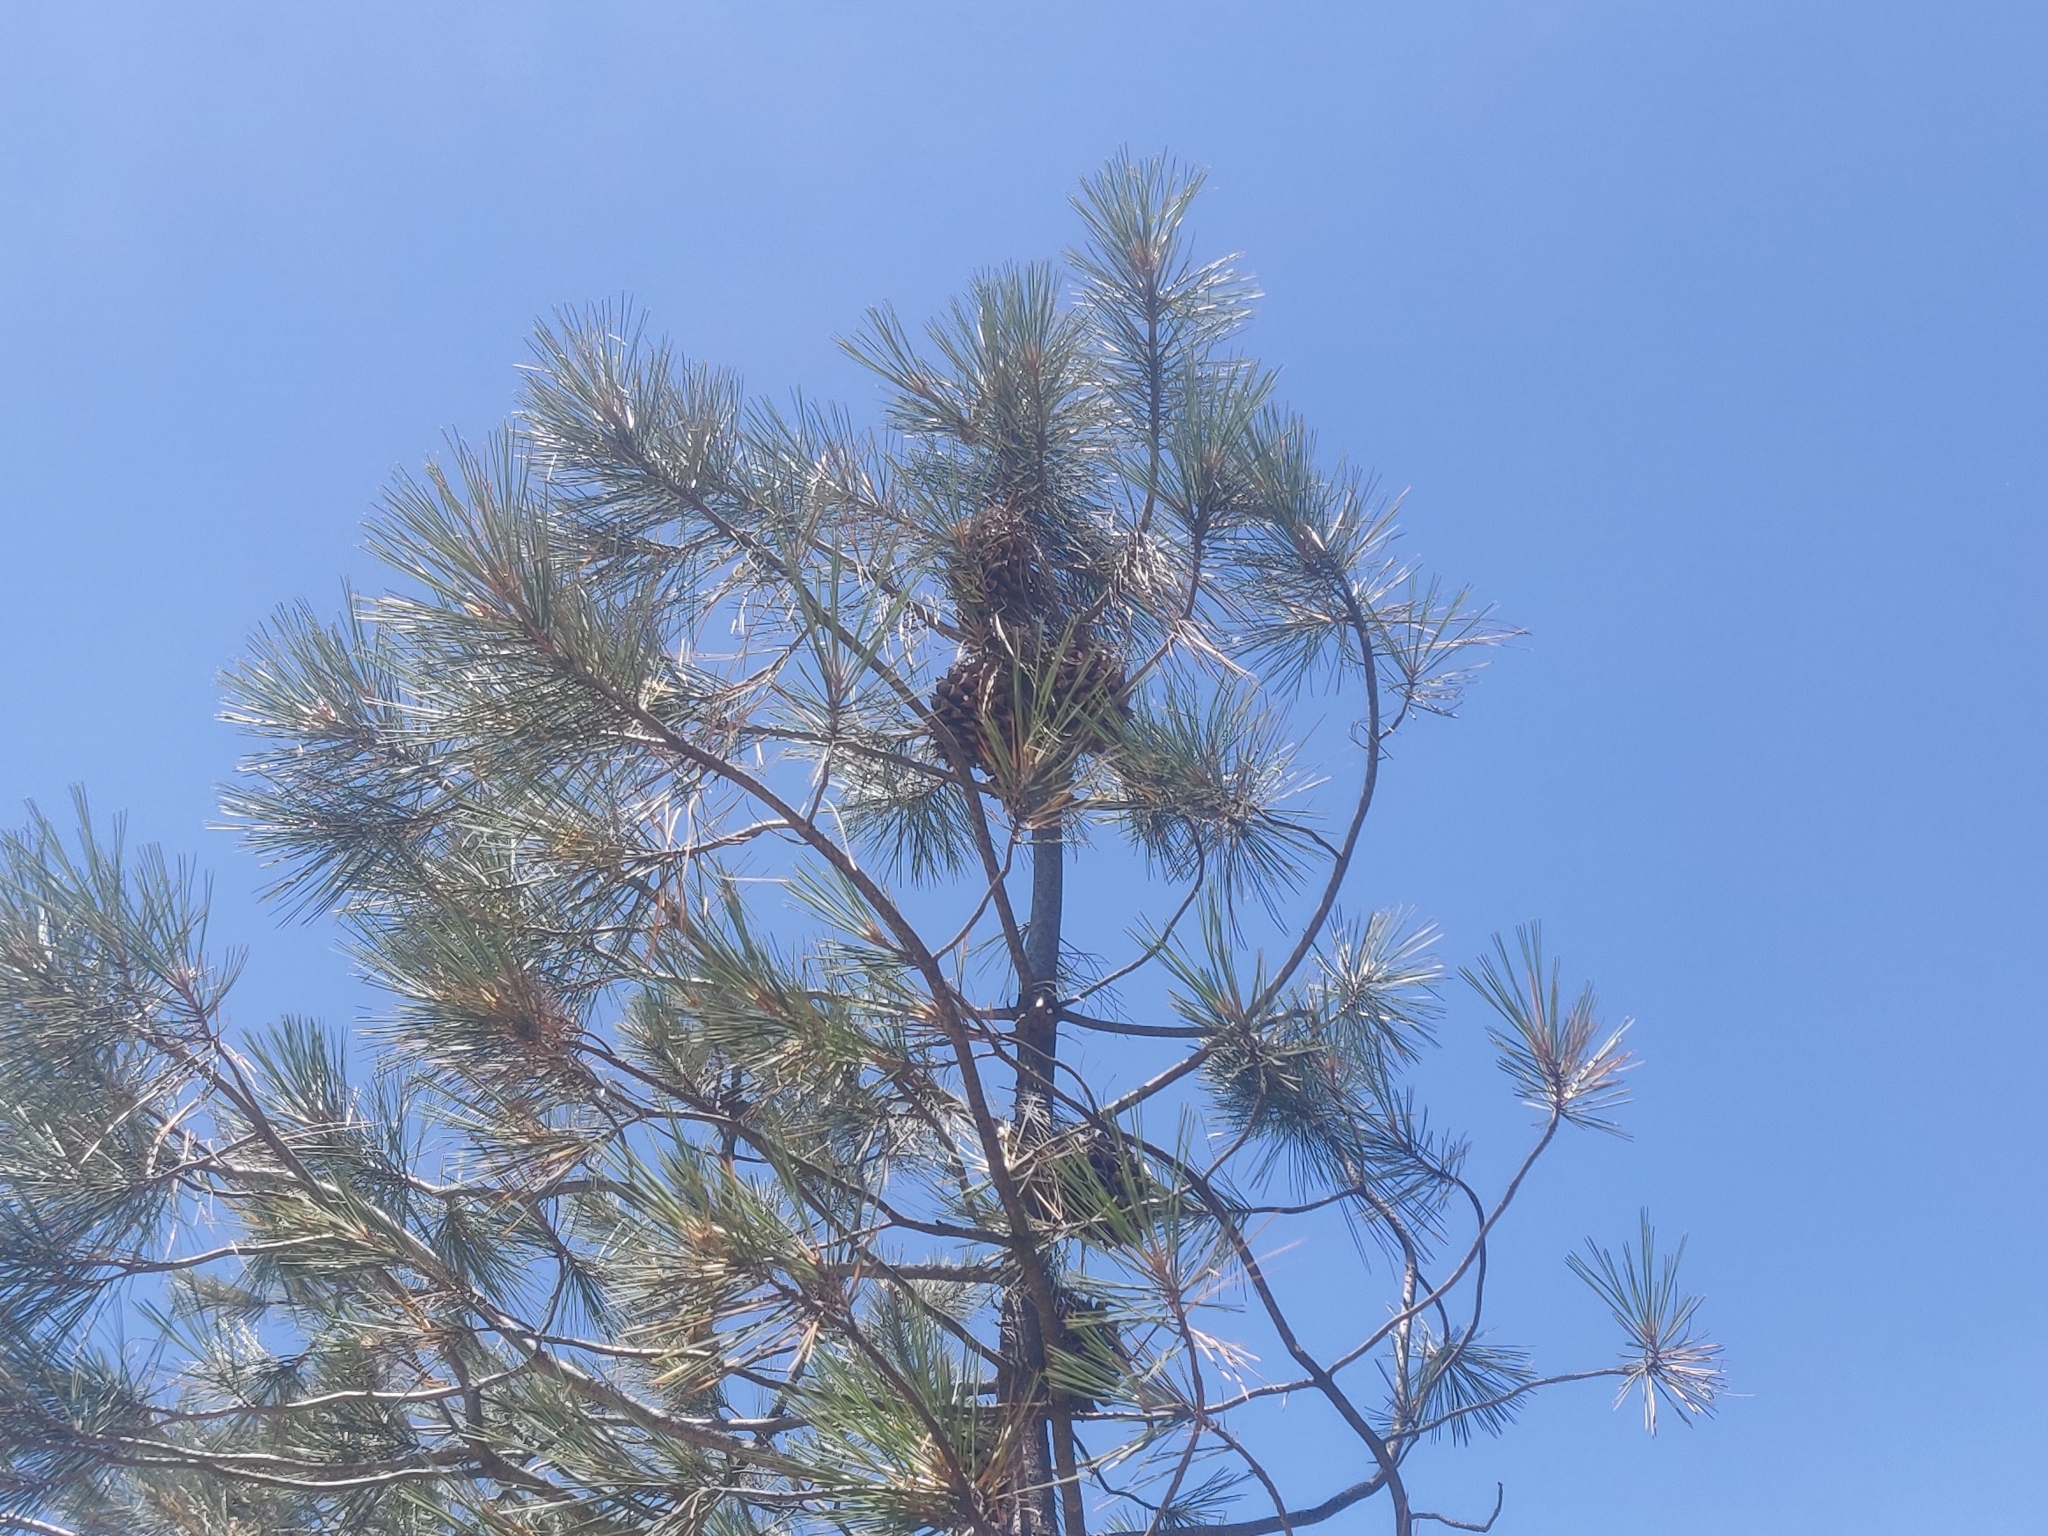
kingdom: Plantae
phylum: Tracheophyta
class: Pinopsida
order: Pinales
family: Pinaceae
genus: Pinus
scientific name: Pinus sabiniana
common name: Bull pine
